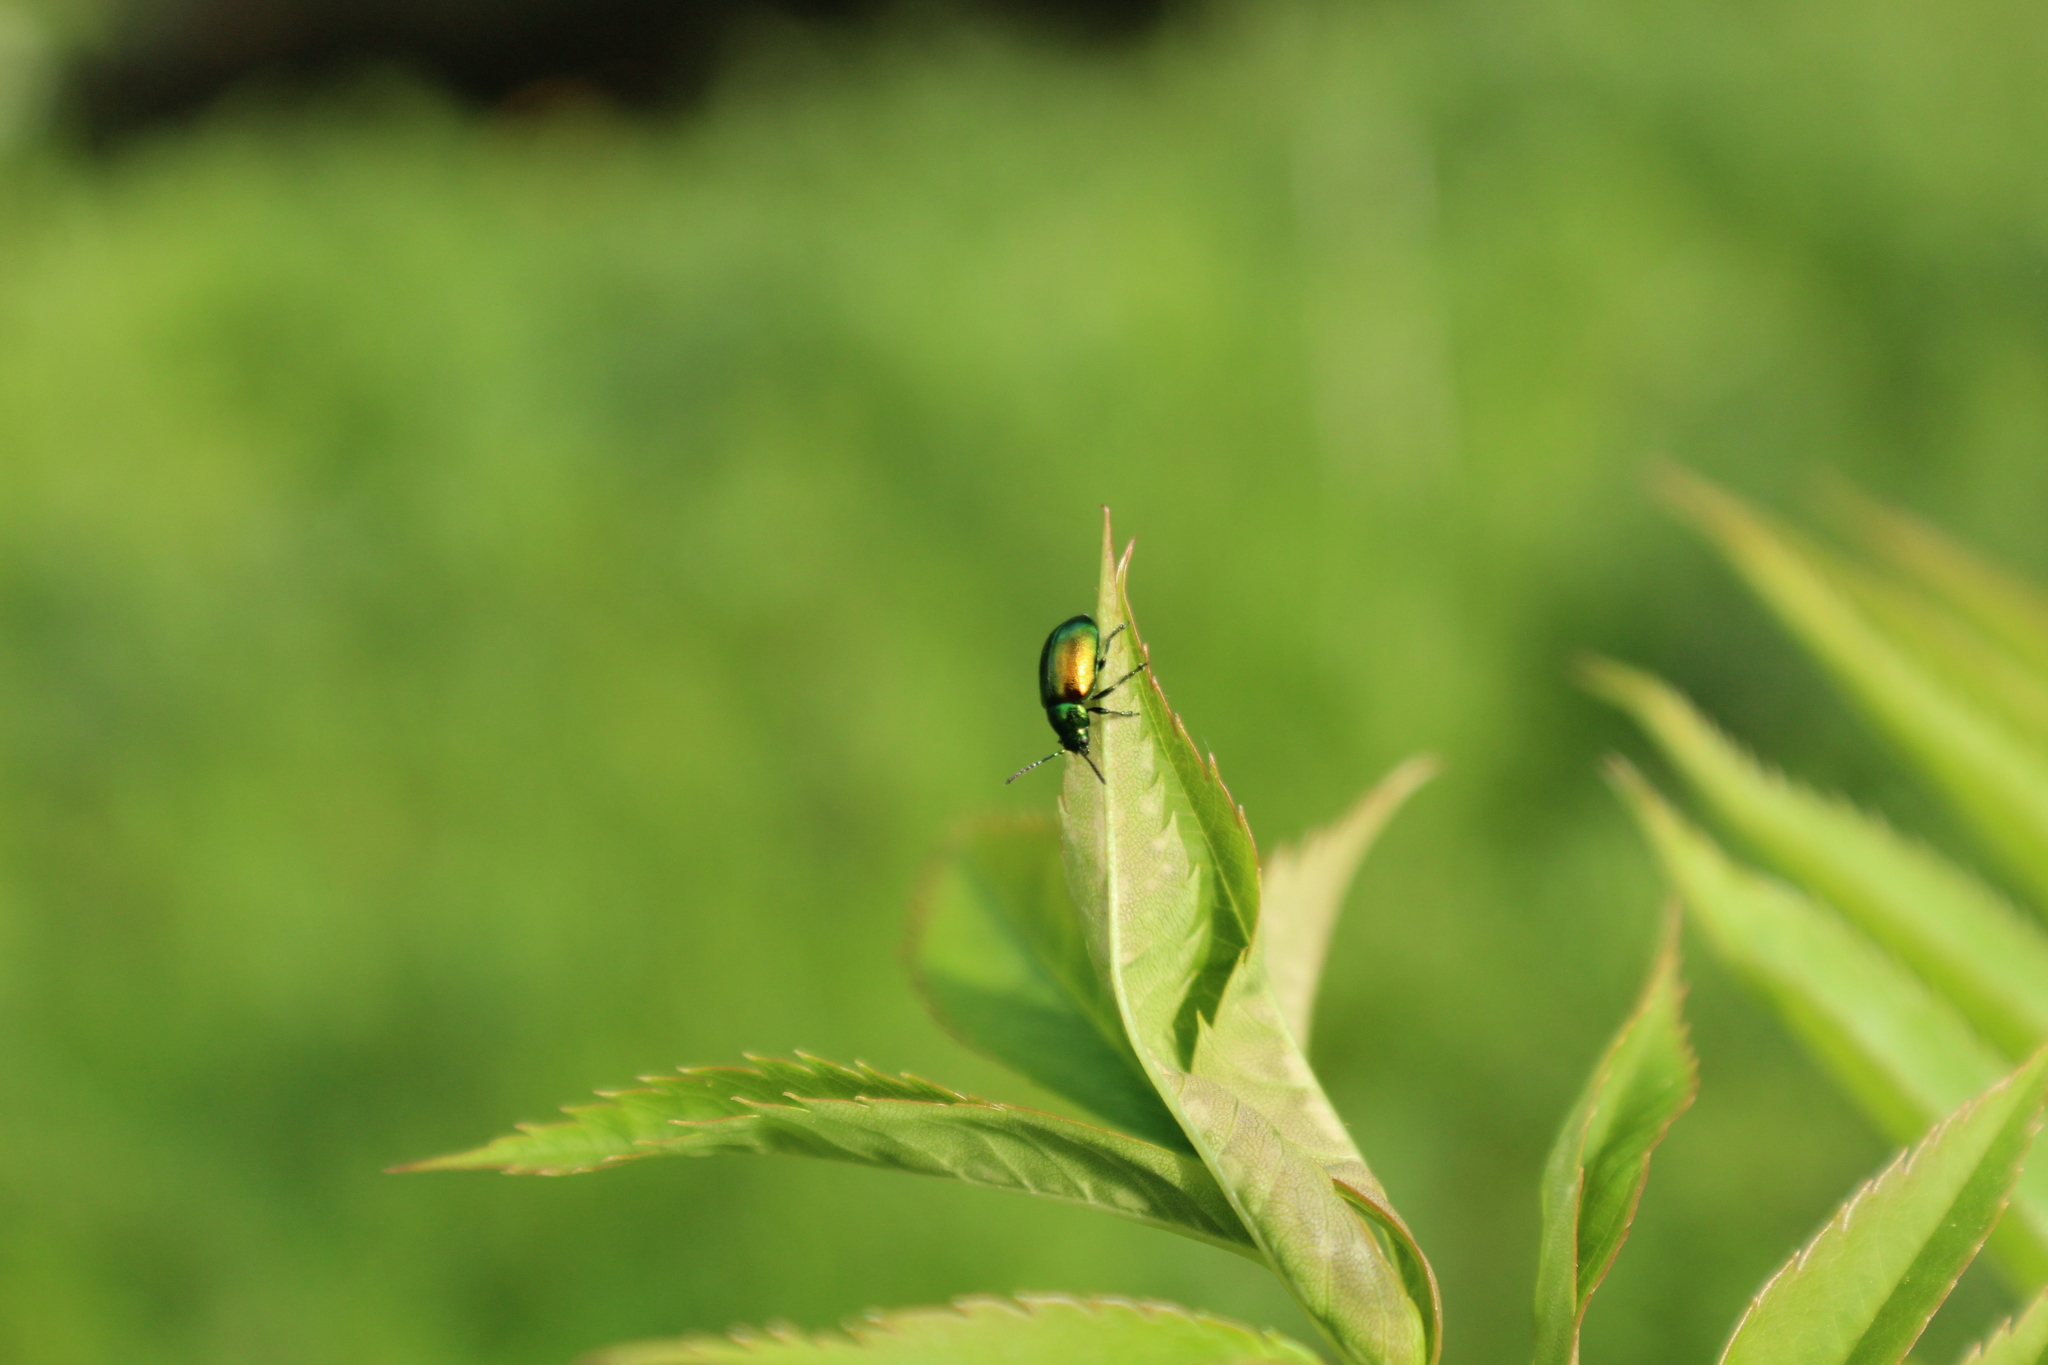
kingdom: Animalia
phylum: Arthropoda
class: Insecta
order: Coleoptera
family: Chrysomelidae
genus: Gastrophysa
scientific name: Gastrophysa viridula
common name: Green dock beetle
